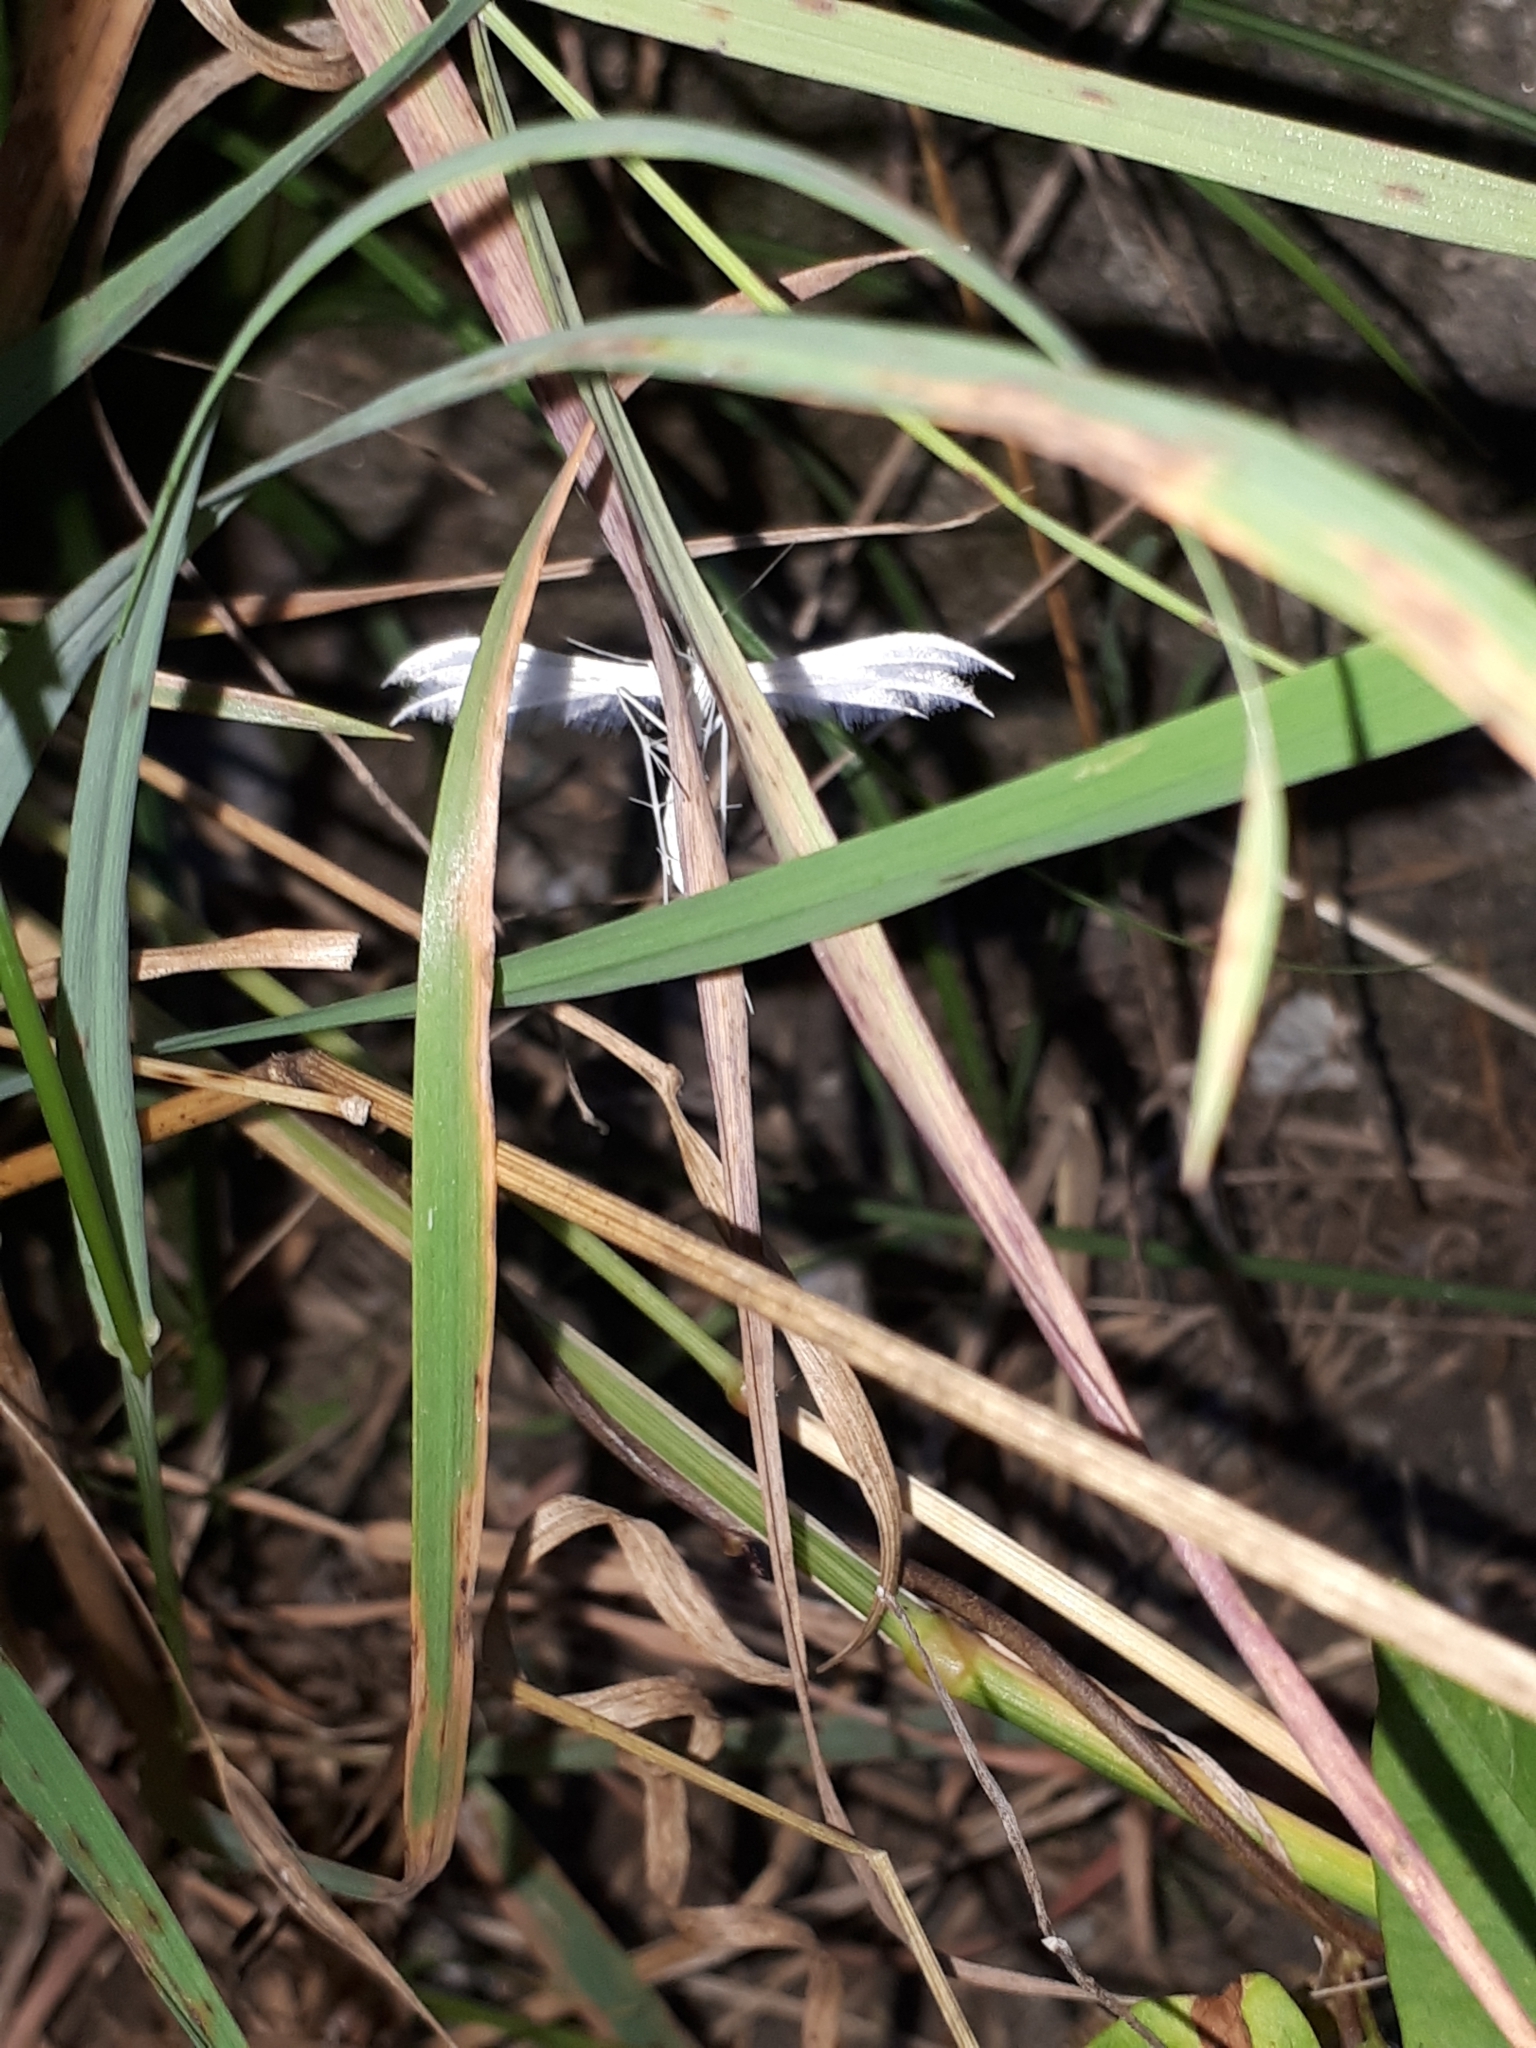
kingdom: Animalia
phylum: Arthropoda
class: Insecta
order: Lepidoptera
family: Pterophoridae
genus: Pterophorus
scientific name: Pterophorus pentadactyla
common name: White plume moth
